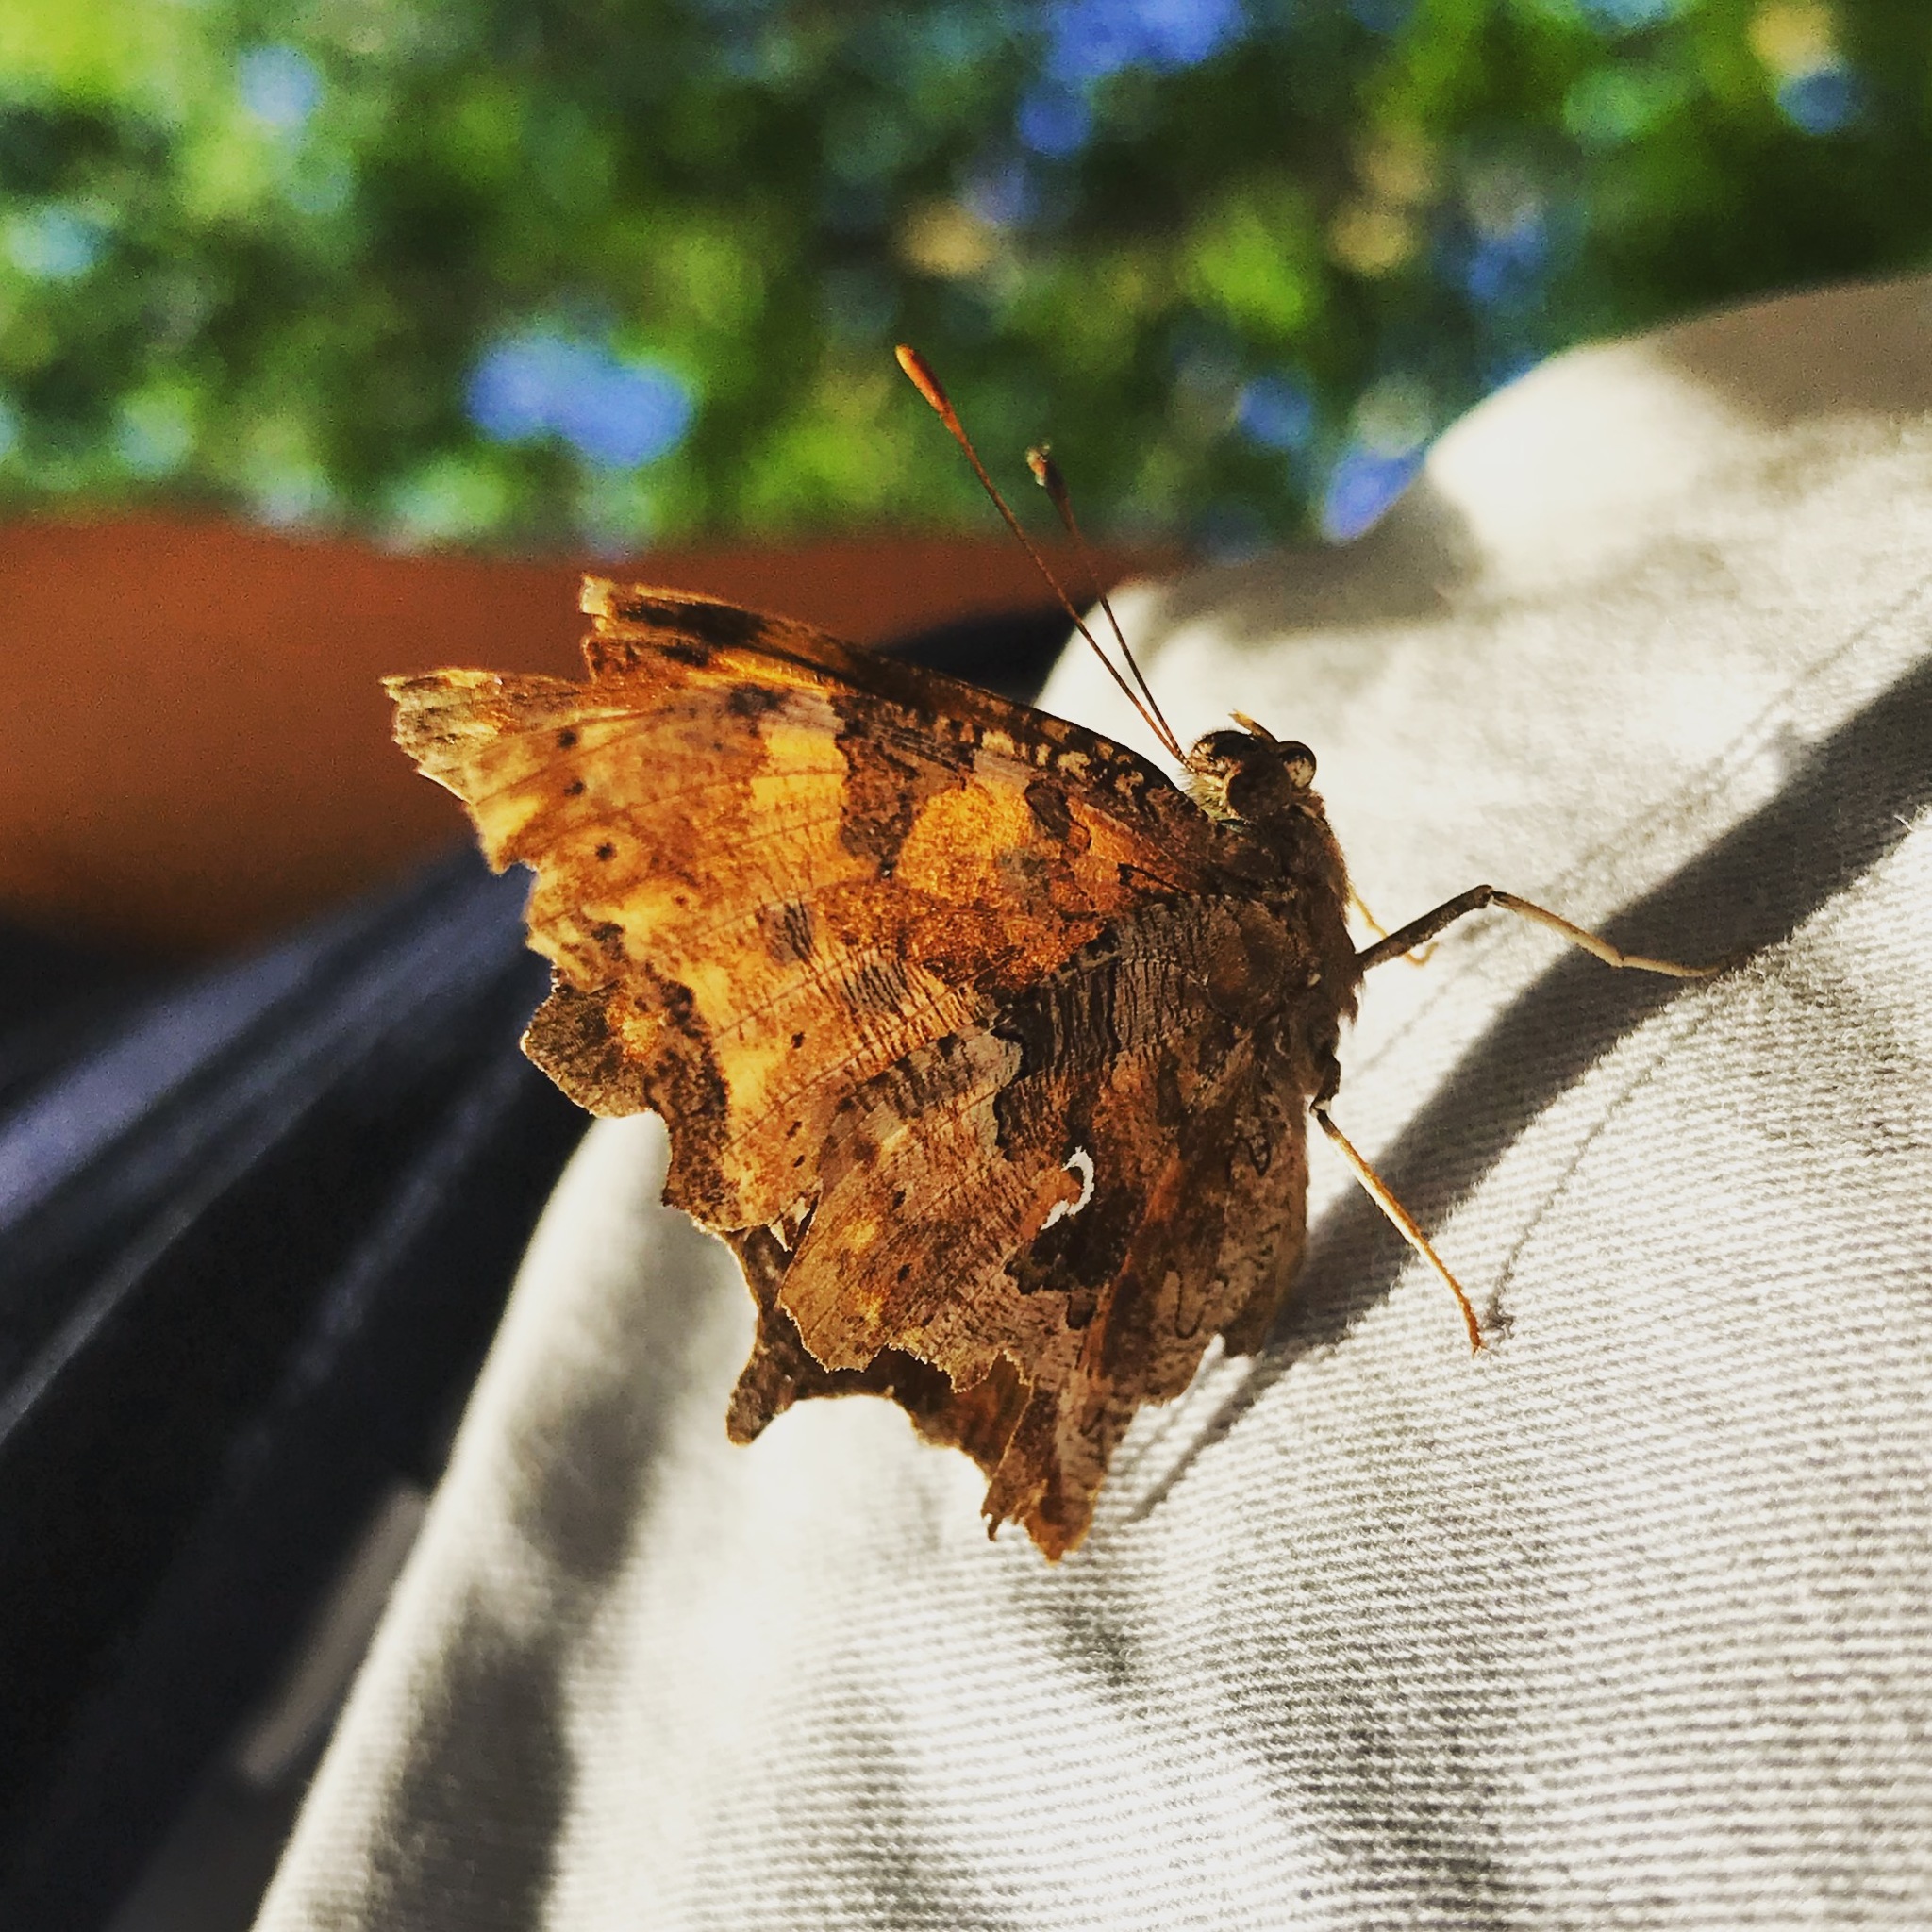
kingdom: Animalia
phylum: Arthropoda
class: Insecta
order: Lepidoptera
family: Nymphalidae
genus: Polygonia
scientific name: Polygonia comma
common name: Eastern comma
